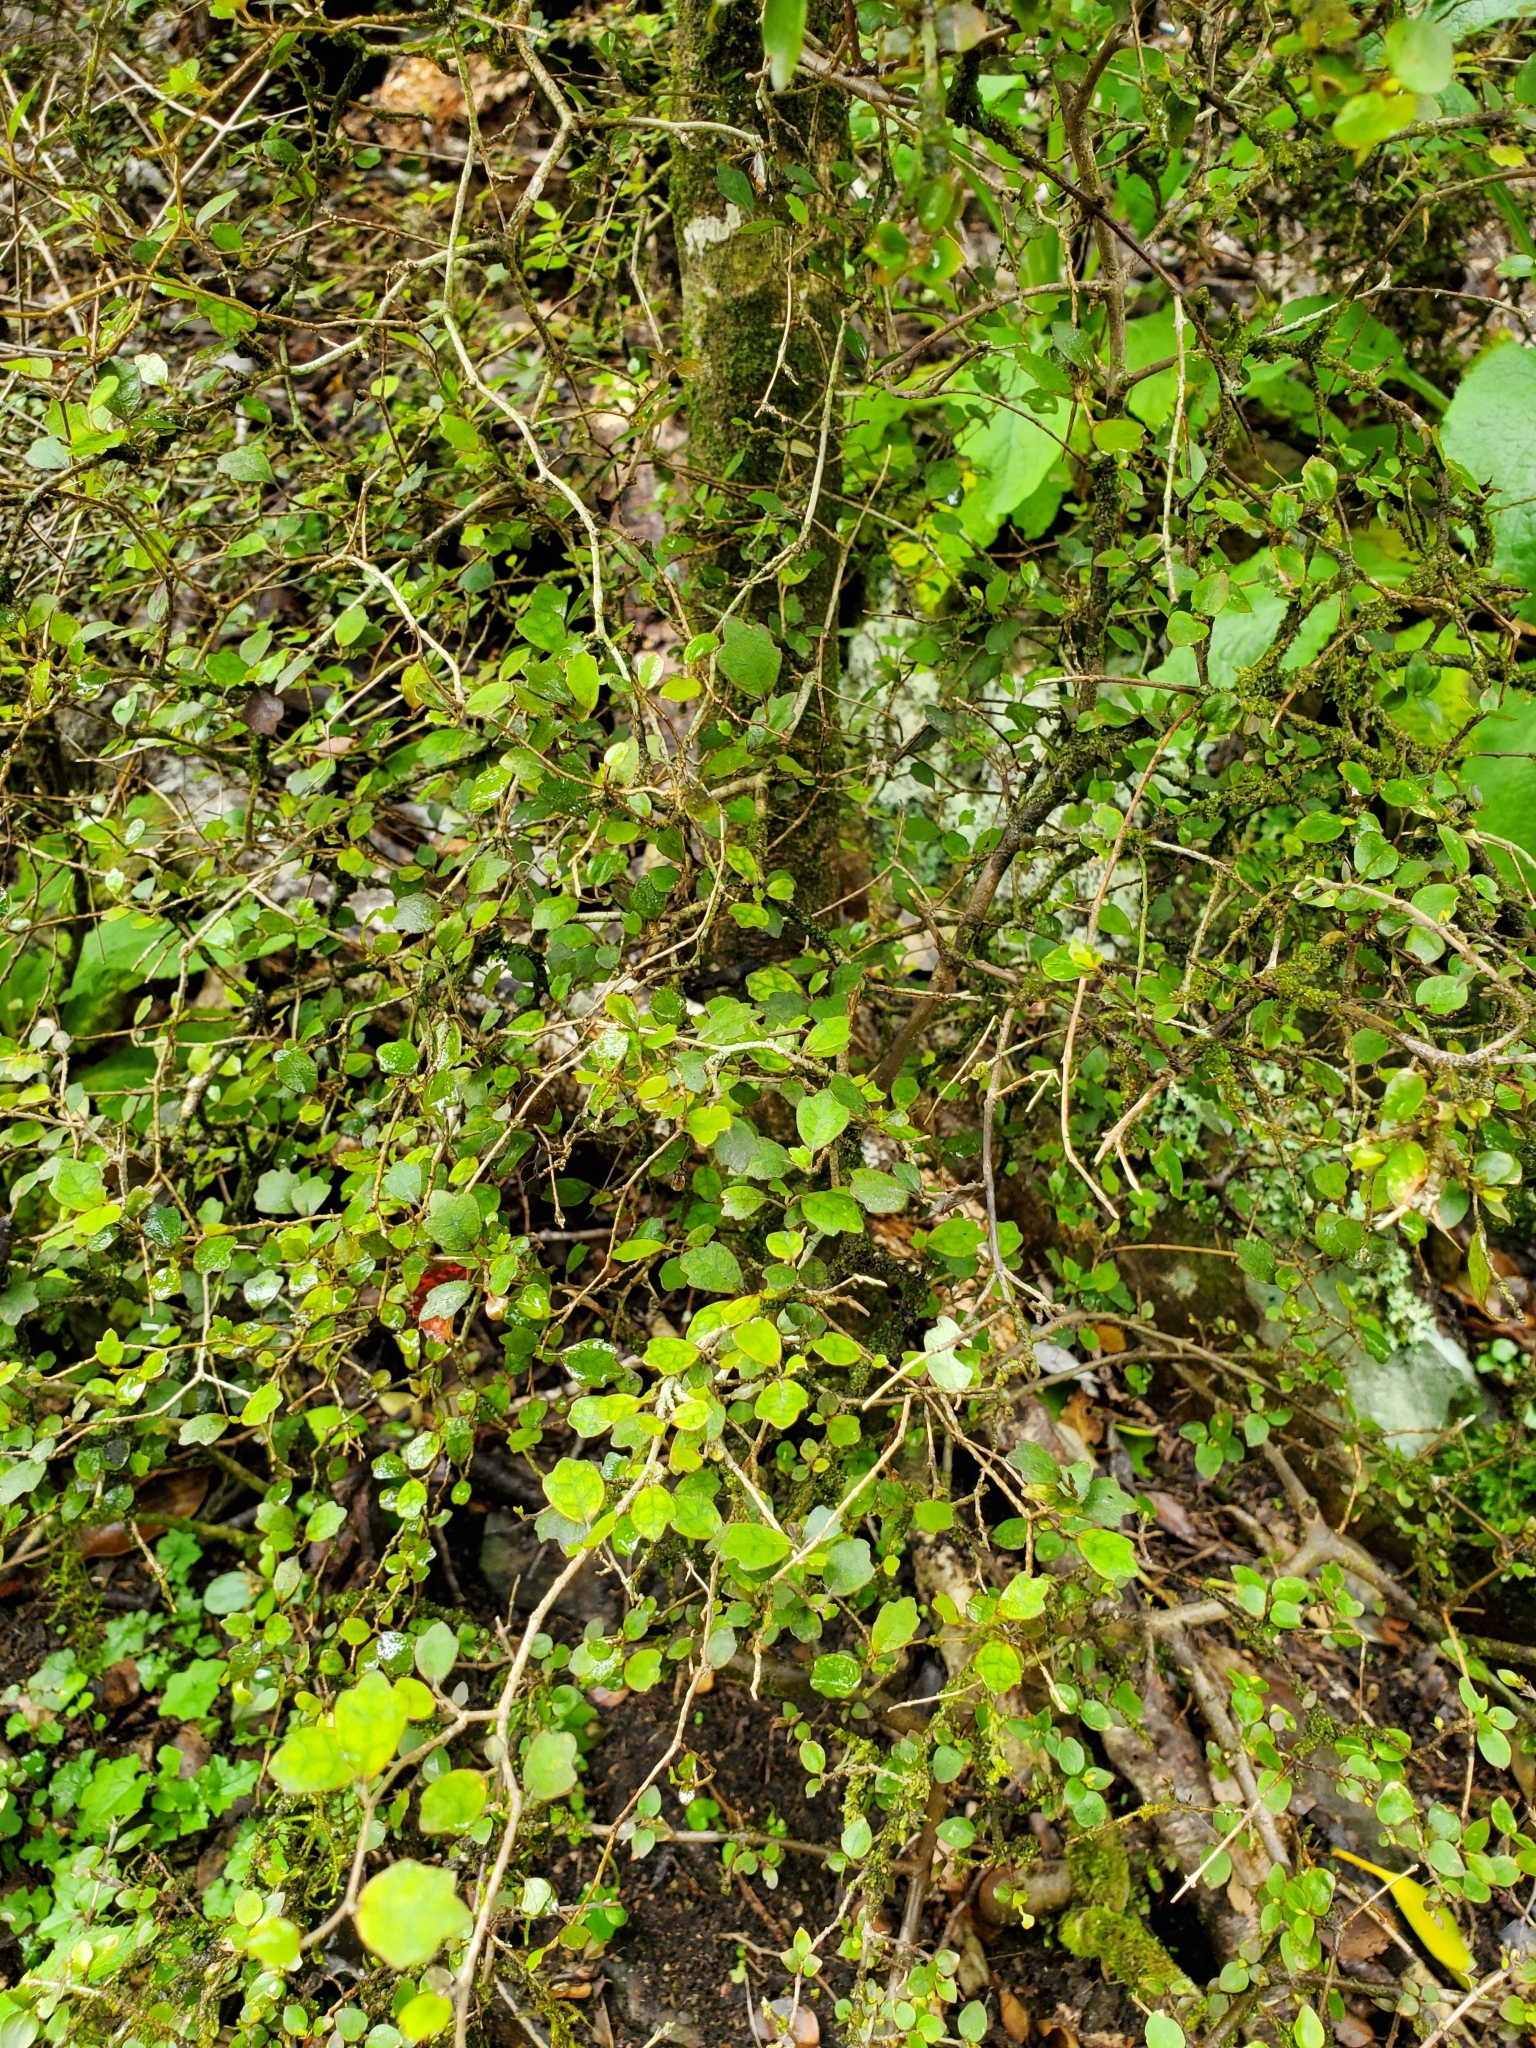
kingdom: Plantae
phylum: Tracheophyta
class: Magnoliopsida
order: Apiales
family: Pennantiaceae
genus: Pennantia
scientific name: Pennantia corymbosa
